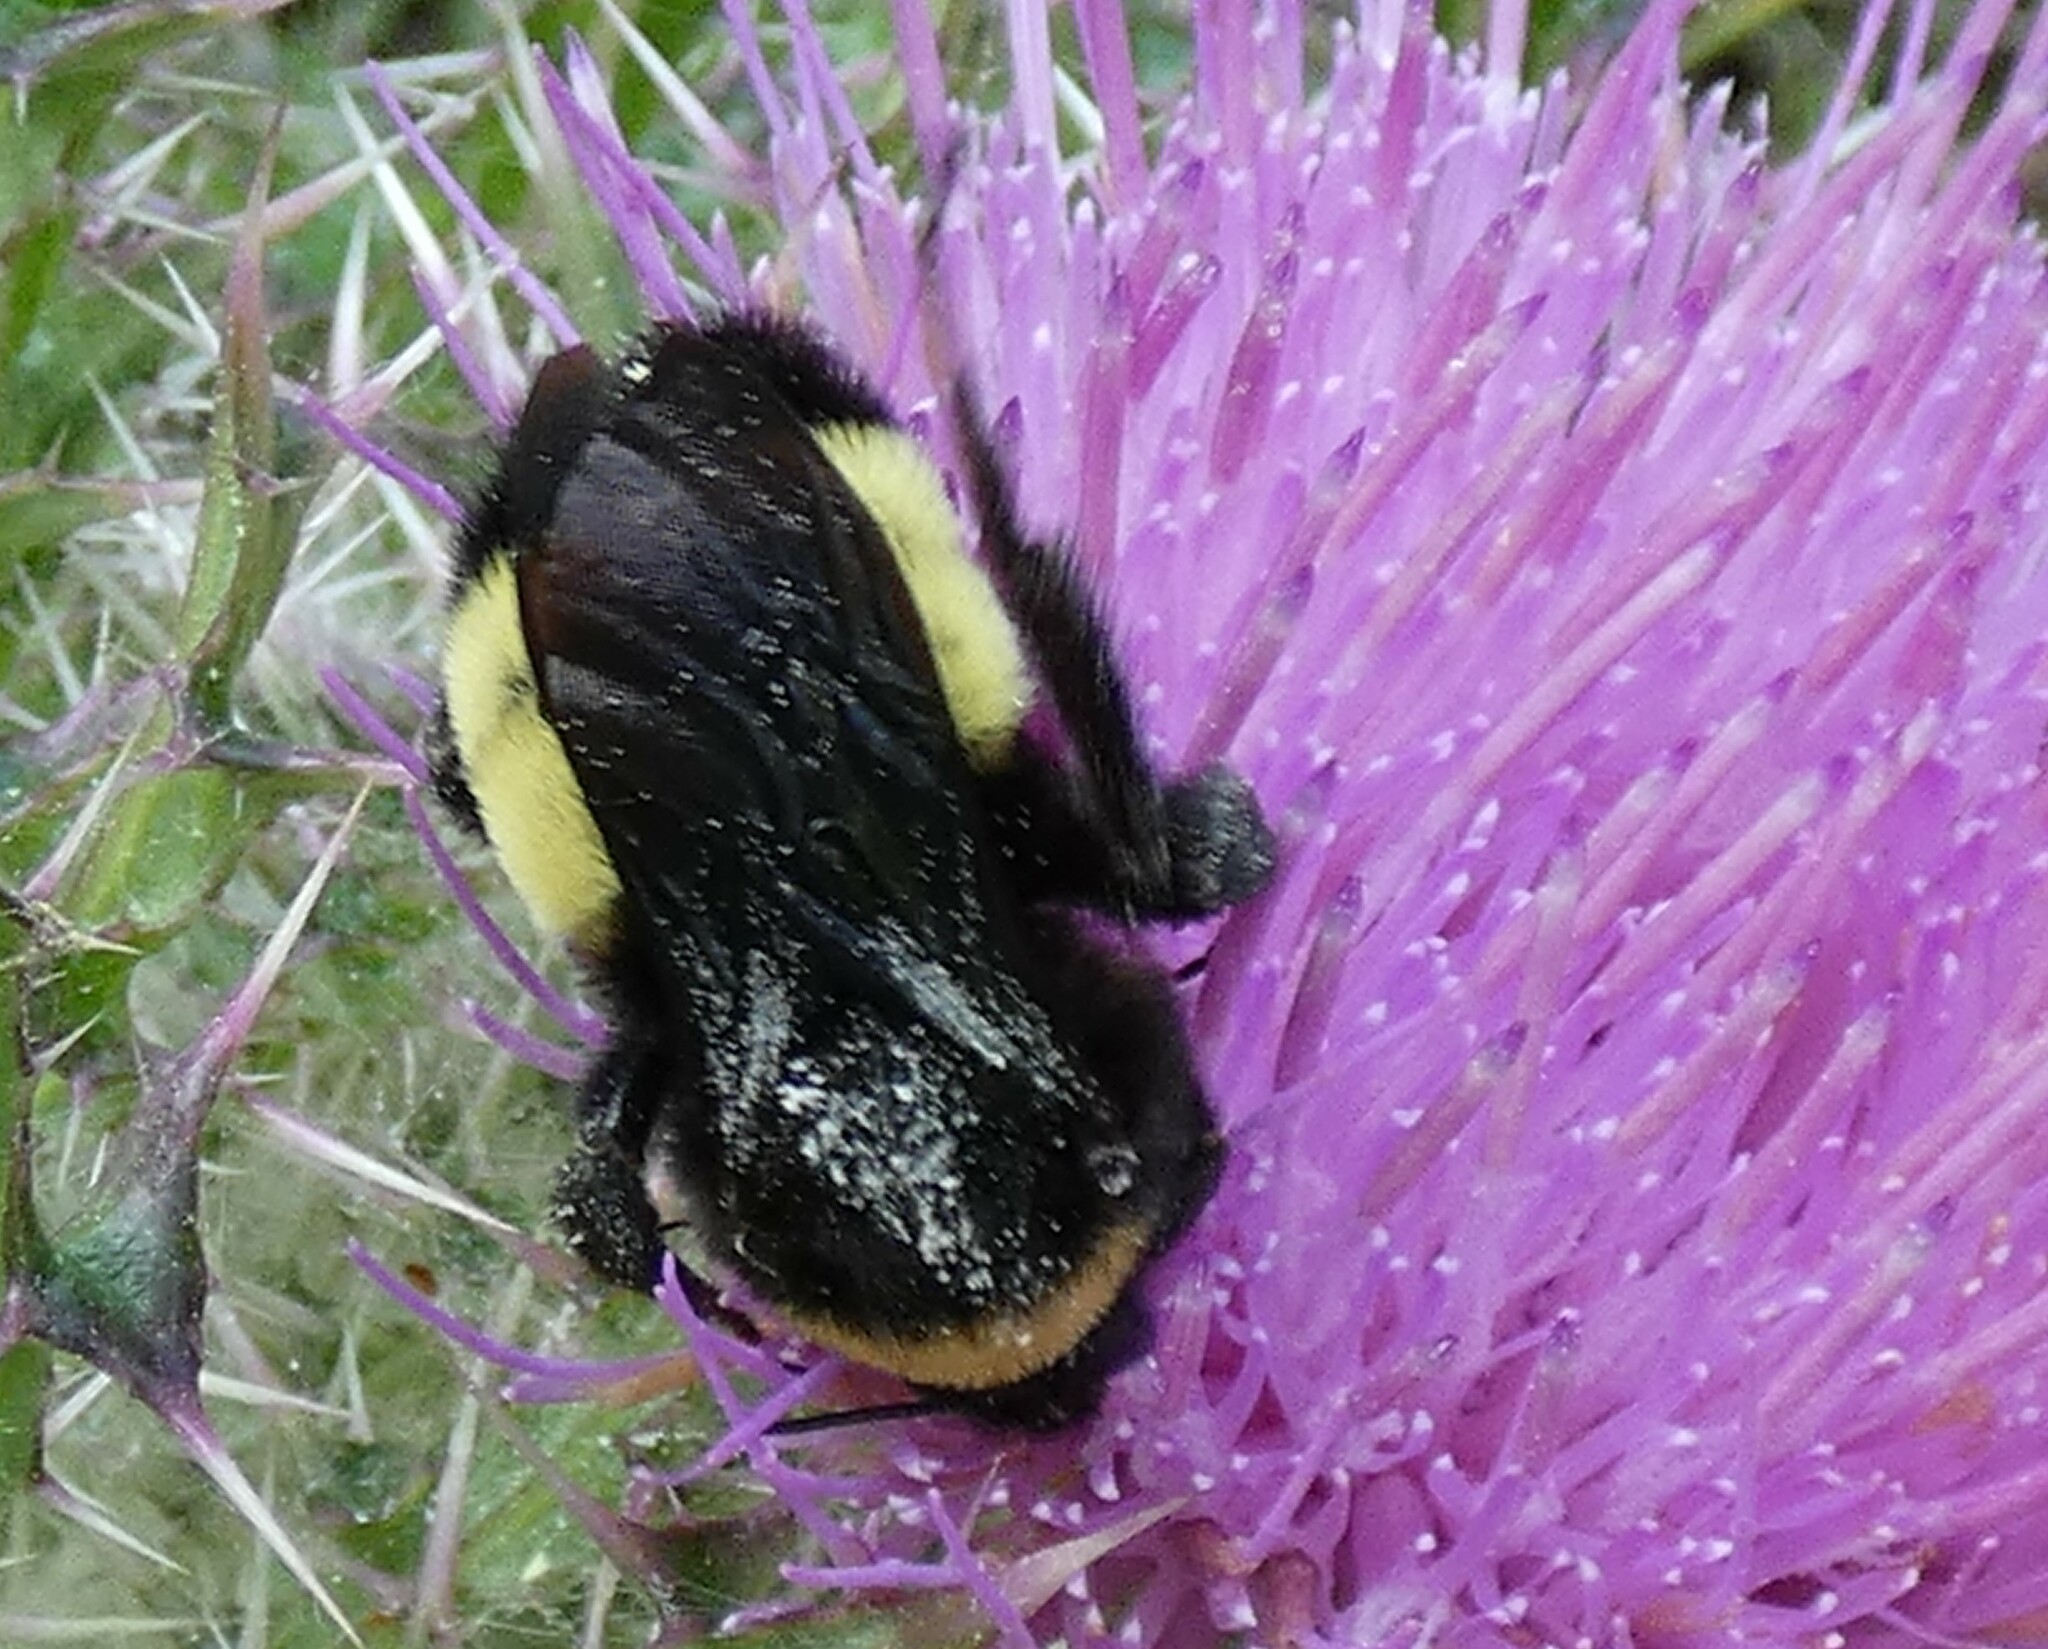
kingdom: Animalia
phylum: Arthropoda
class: Insecta
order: Hymenoptera
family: Apidae
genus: Bombus
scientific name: Bombus pensylvanicus
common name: Bumble bee
